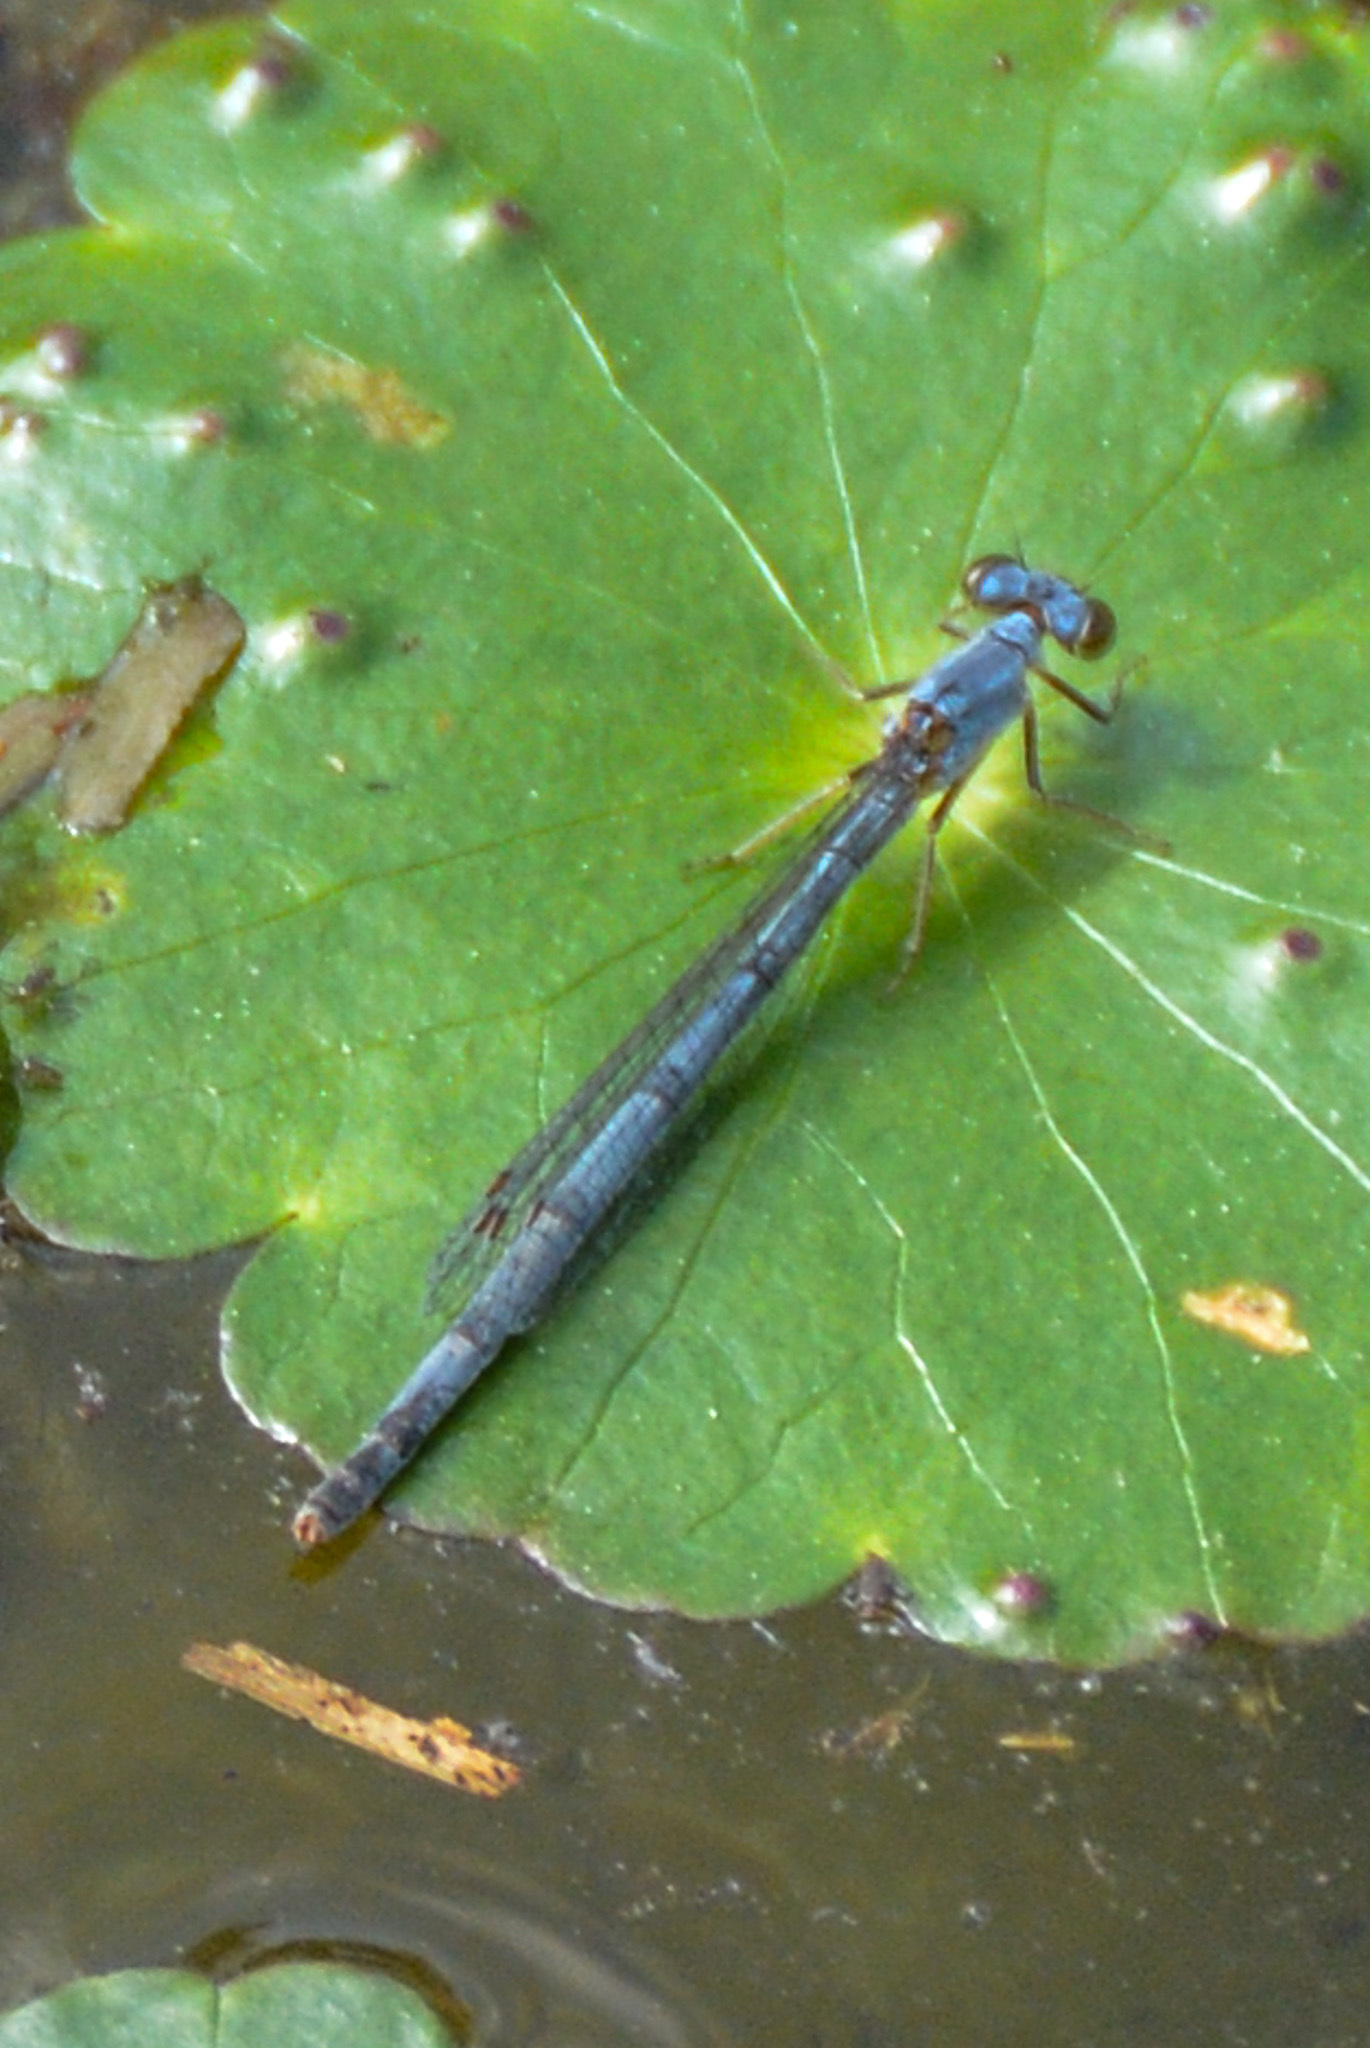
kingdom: Animalia
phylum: Arthropoda
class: Insecta
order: Odonata
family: Coenagrionidae
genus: Ischnura
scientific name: Ischnura posita
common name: Fragile forktail
